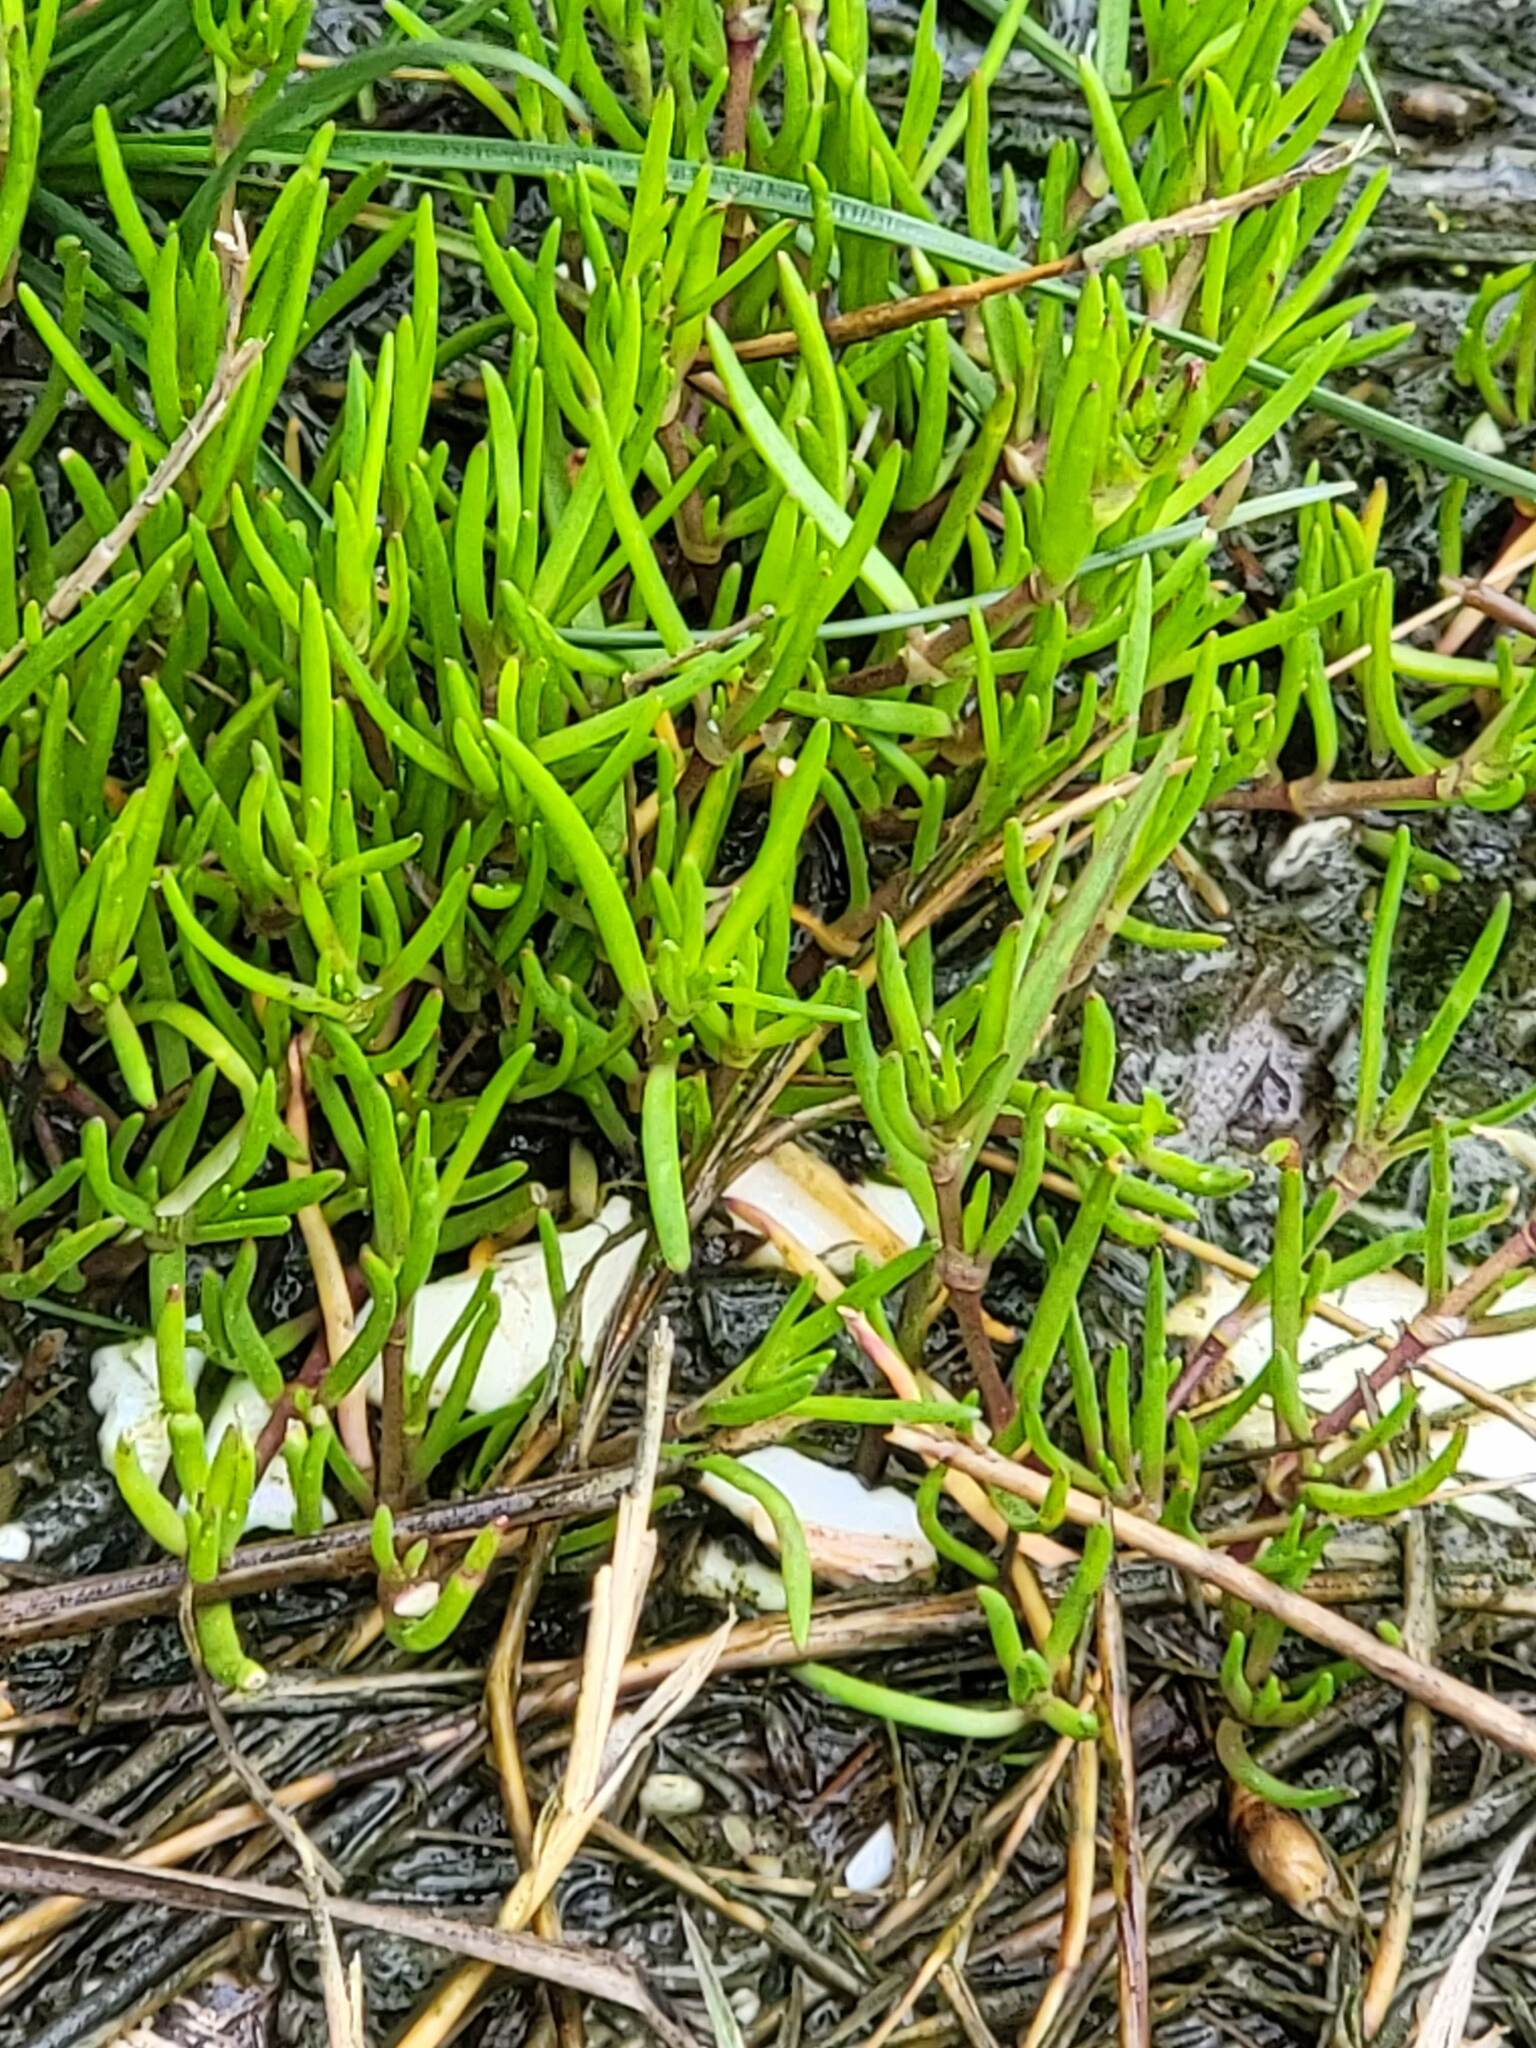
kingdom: Plantae
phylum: Tracheophyta
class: Magnoliopsida
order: Caryophyllales
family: Caryophyllaceae
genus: Spergularia
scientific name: Spergularia marina
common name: Lesser sea-spurrey
